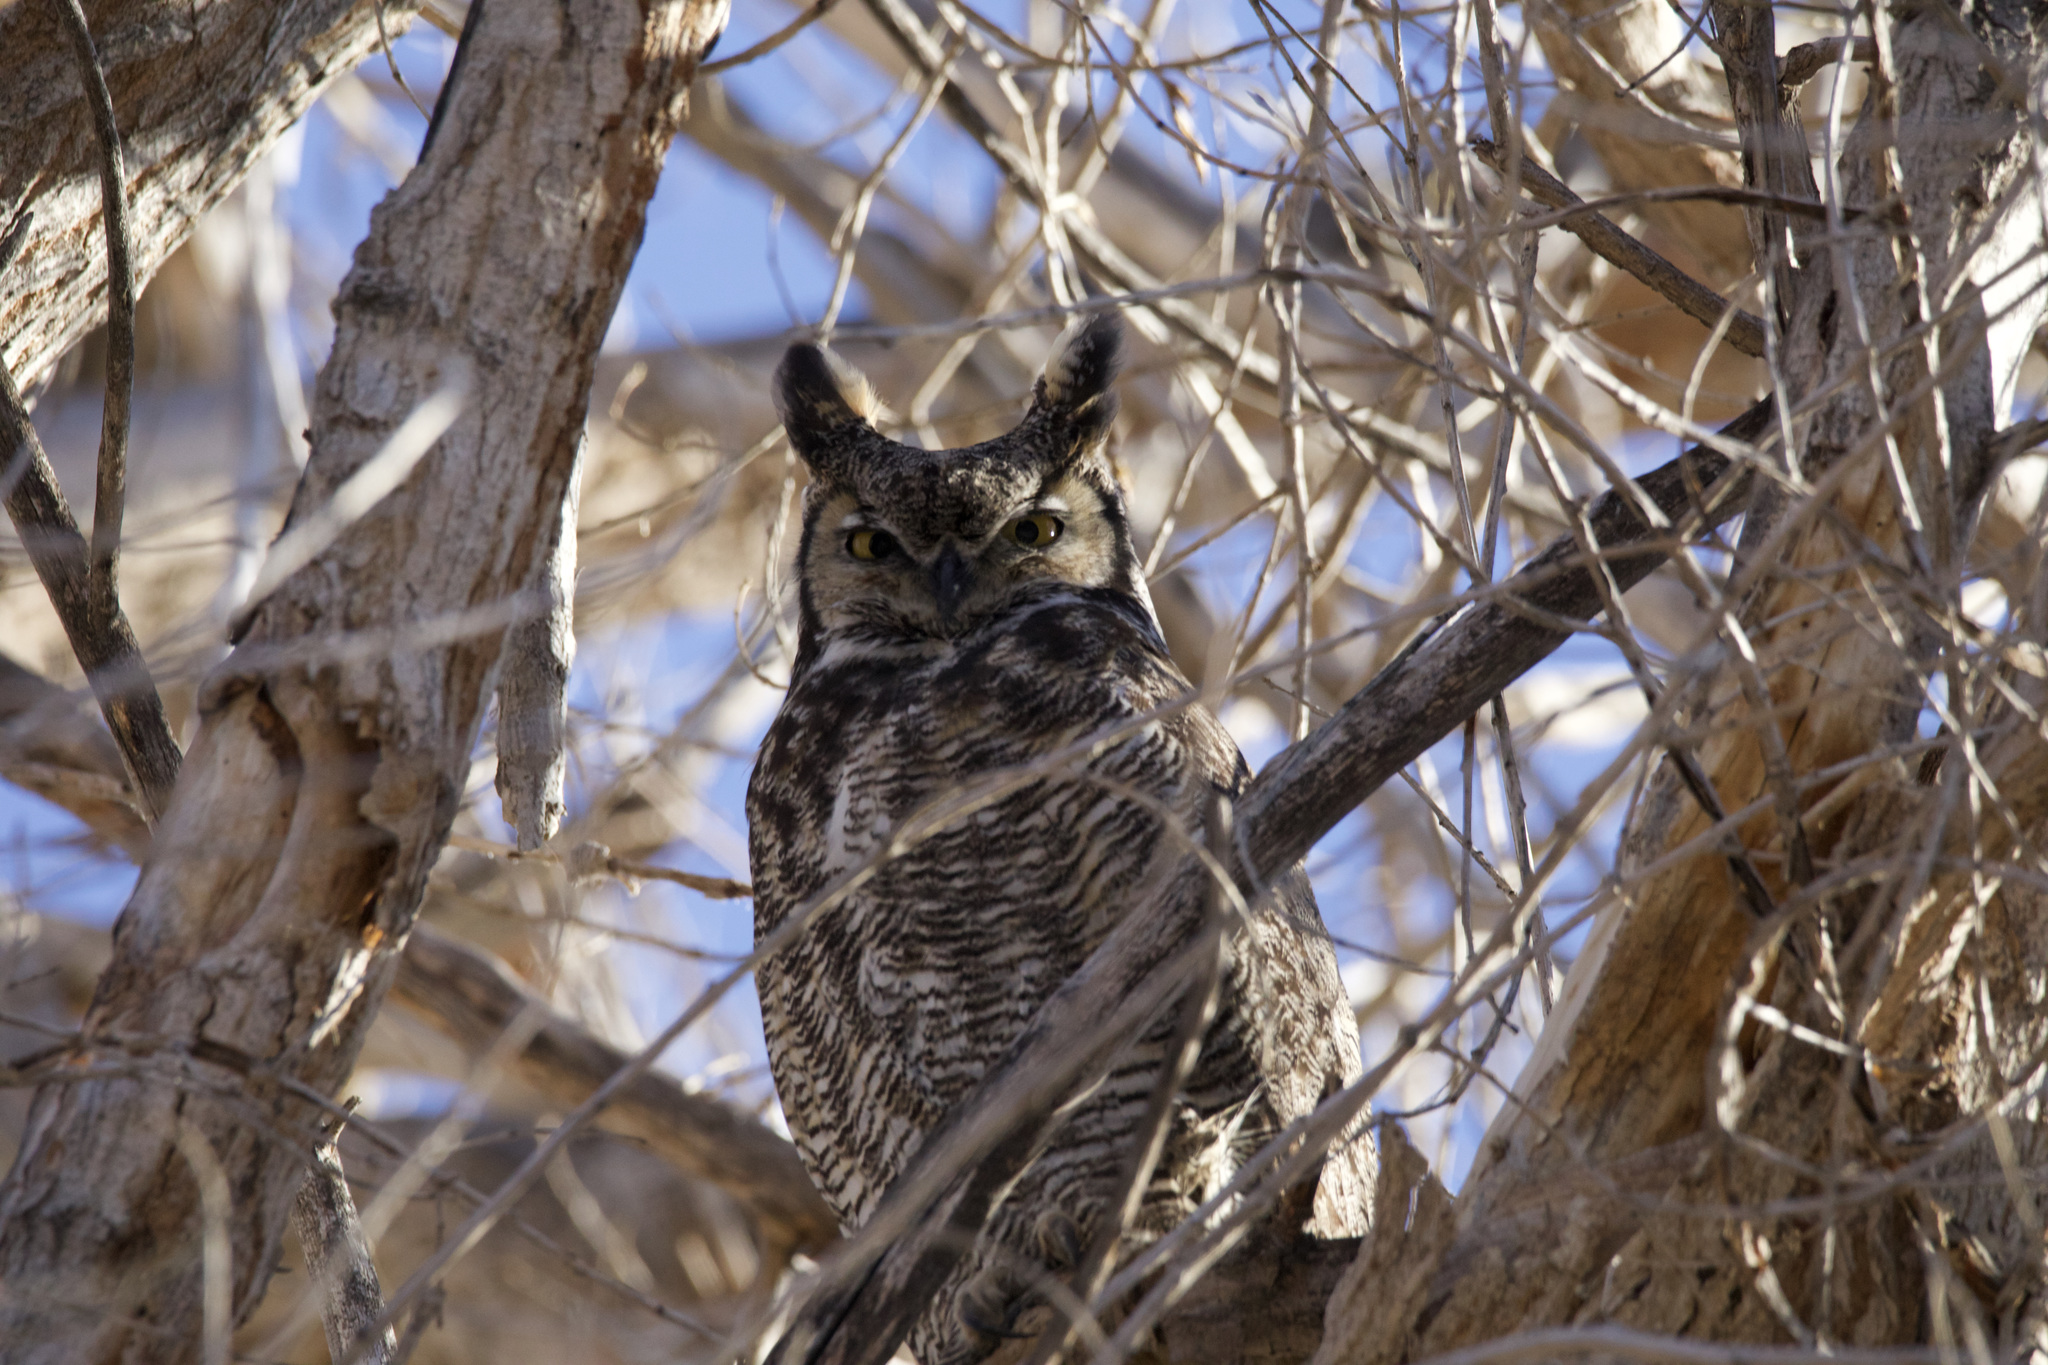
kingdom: Animalia
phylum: Chordata
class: Aves
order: Strigiformes
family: Strigidae
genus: Bubo
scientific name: Bubo virginianus
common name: Great horned owl
